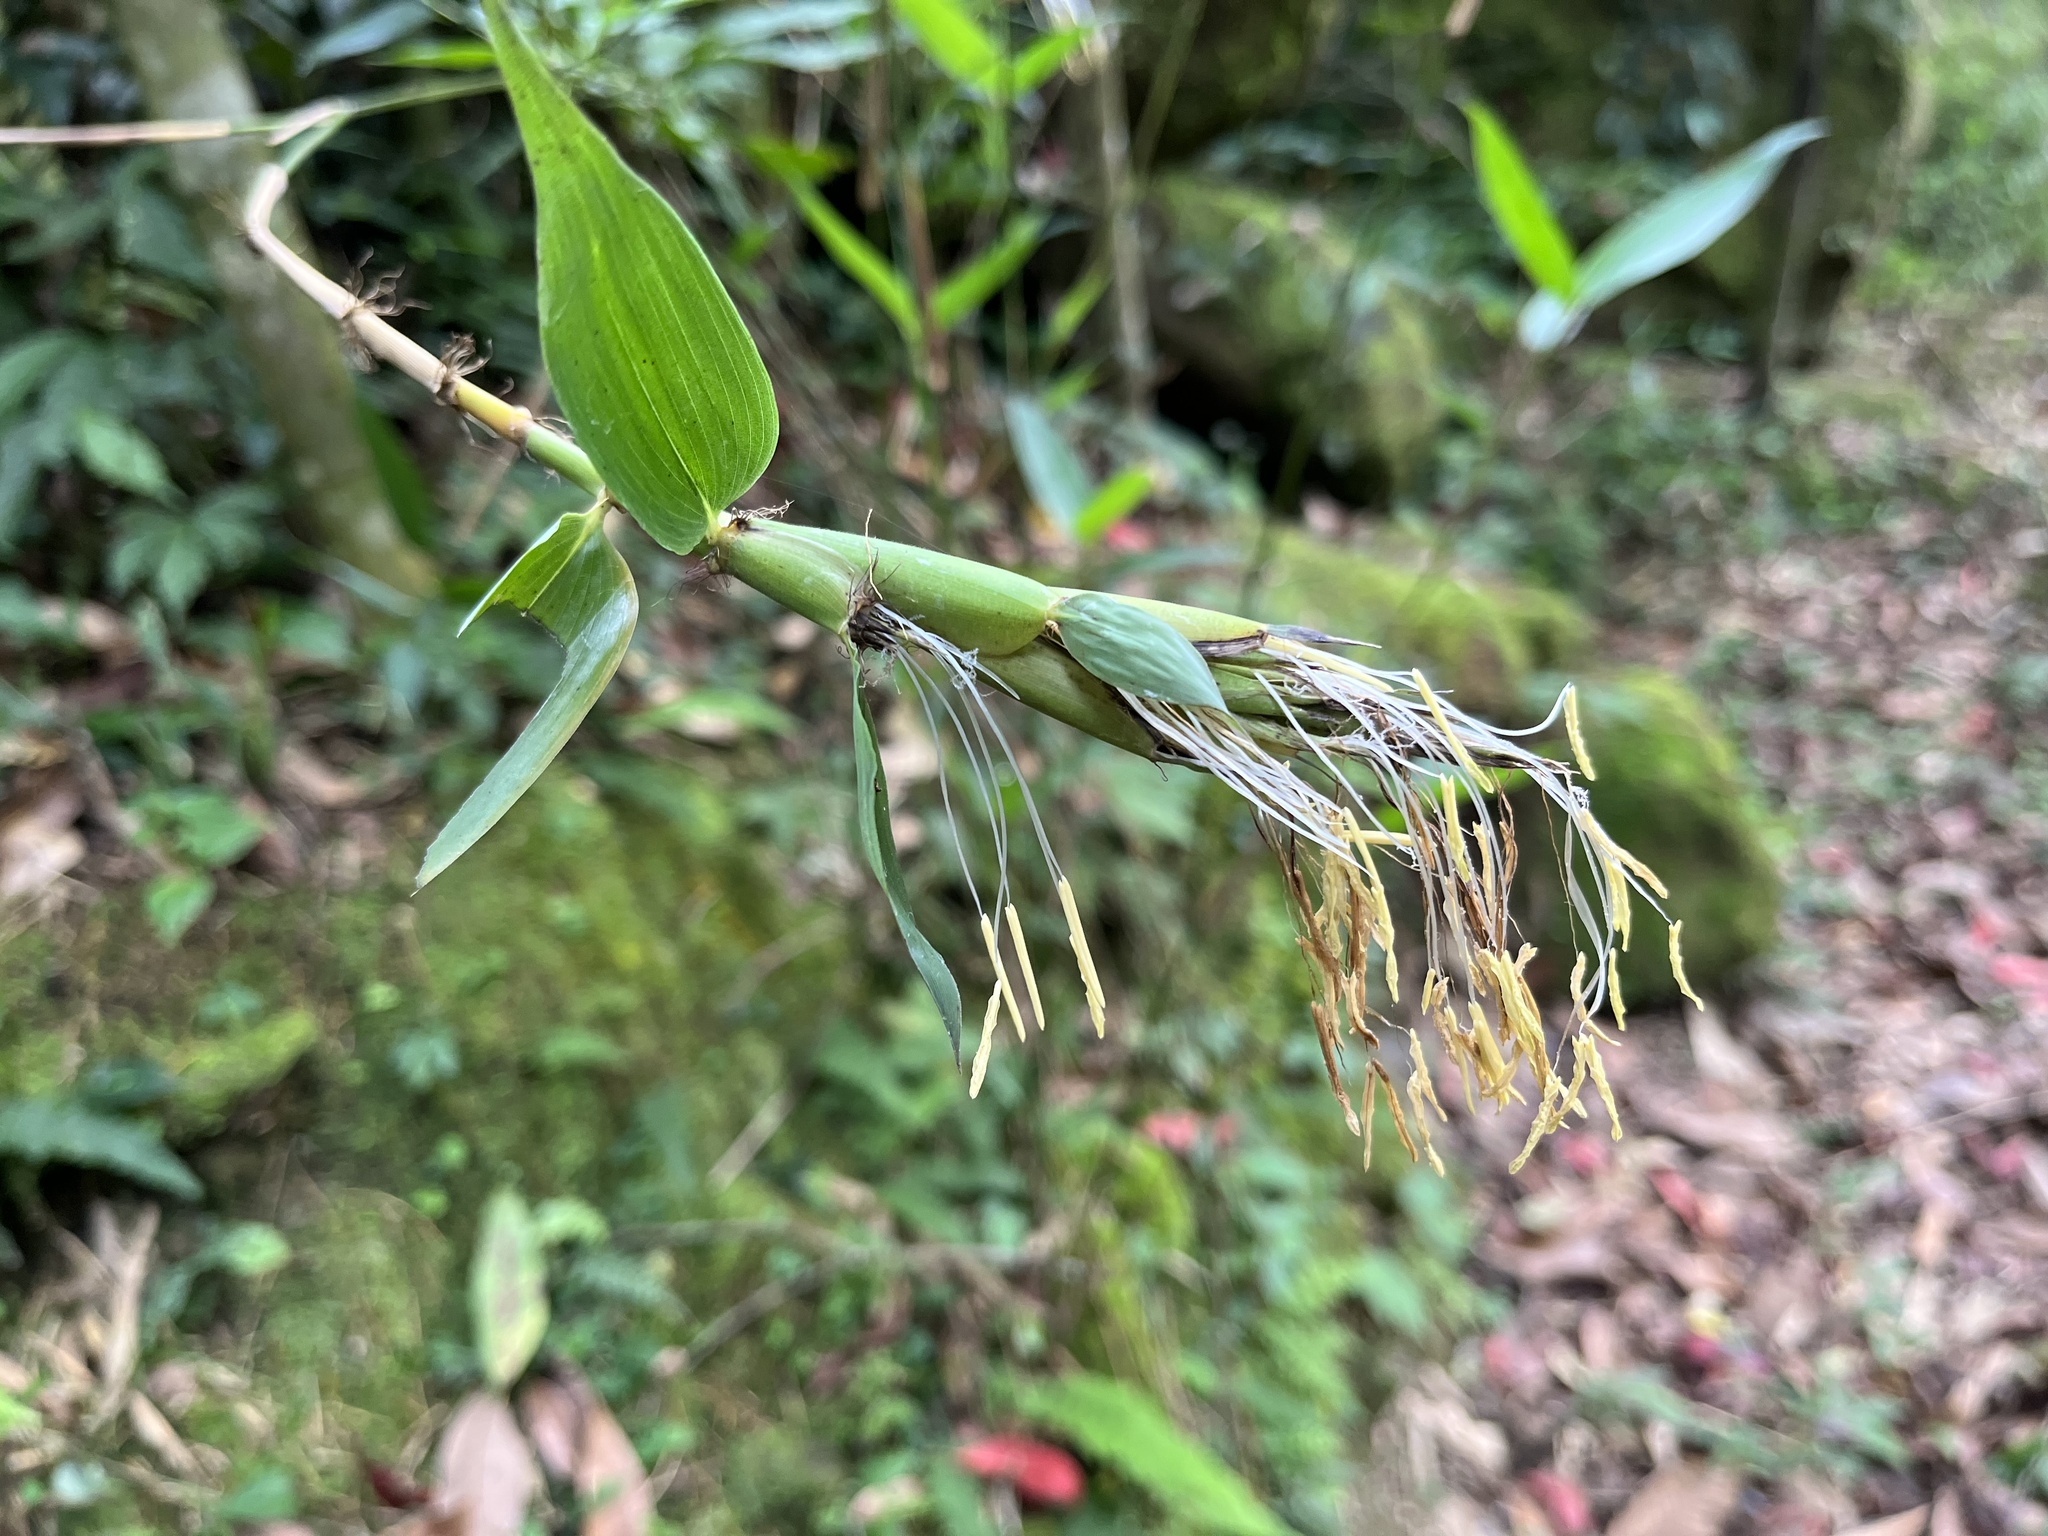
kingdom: Plantae
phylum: Tracheophyta
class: Liliopsida
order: Poales
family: Poaceae
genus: Bambusa
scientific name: Bambusa diffusa
